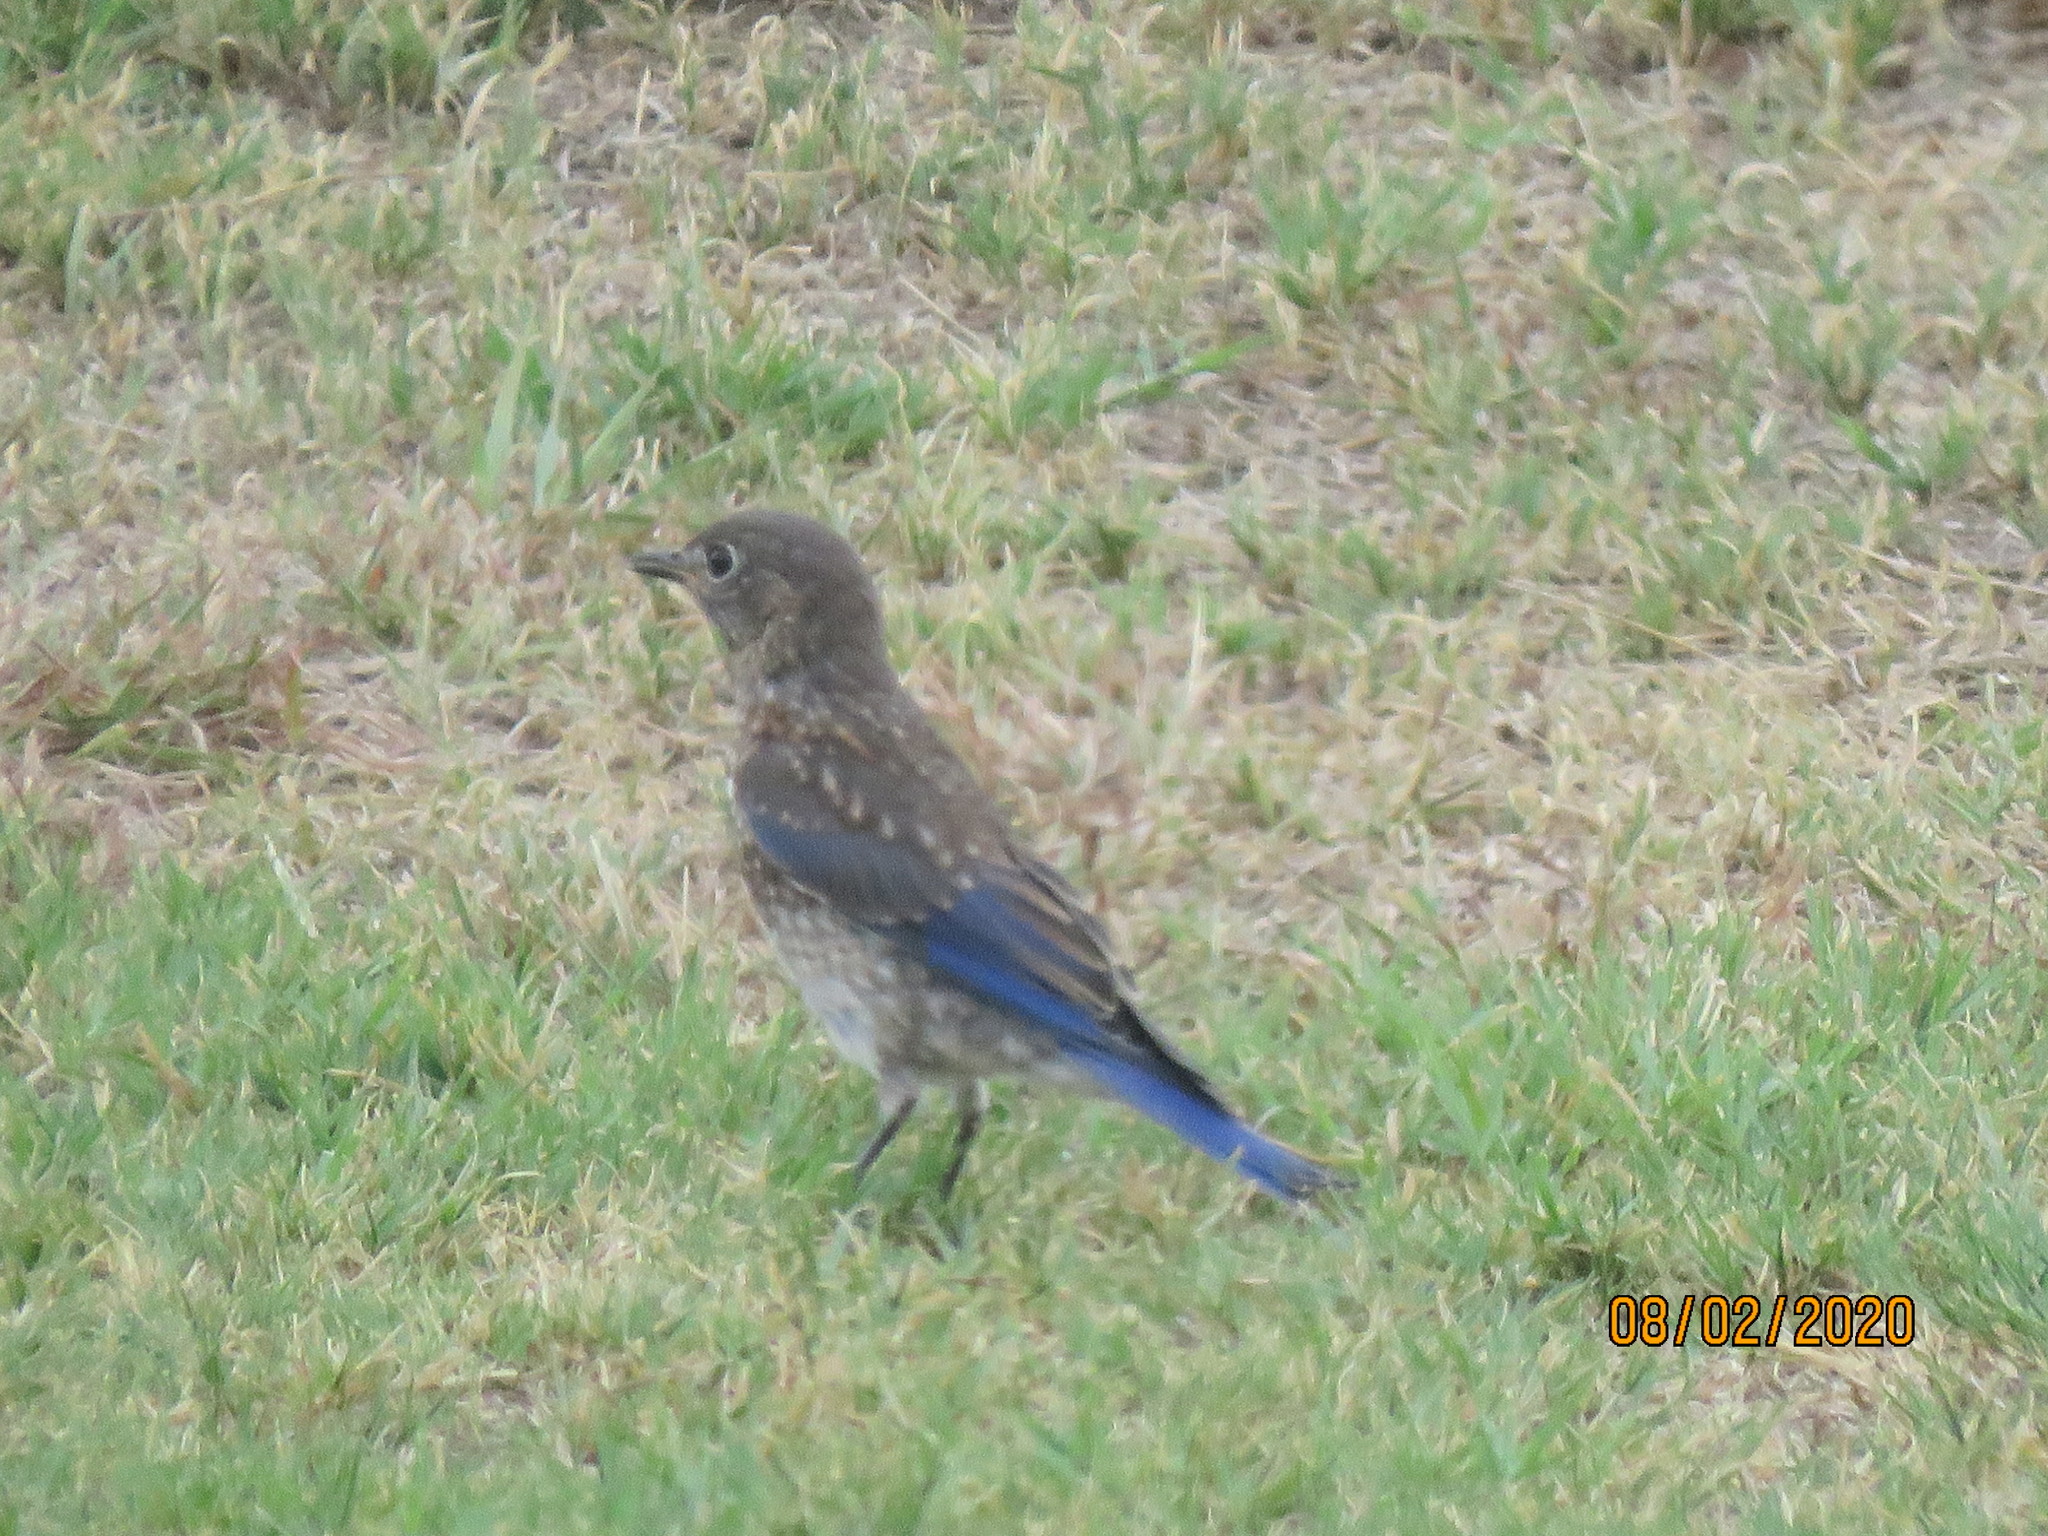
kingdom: Animalia
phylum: Chordata
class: Aves
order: Passeriformes
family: Turdidae
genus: Sialia
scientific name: Sialia sialis
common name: Eastern bluebird
